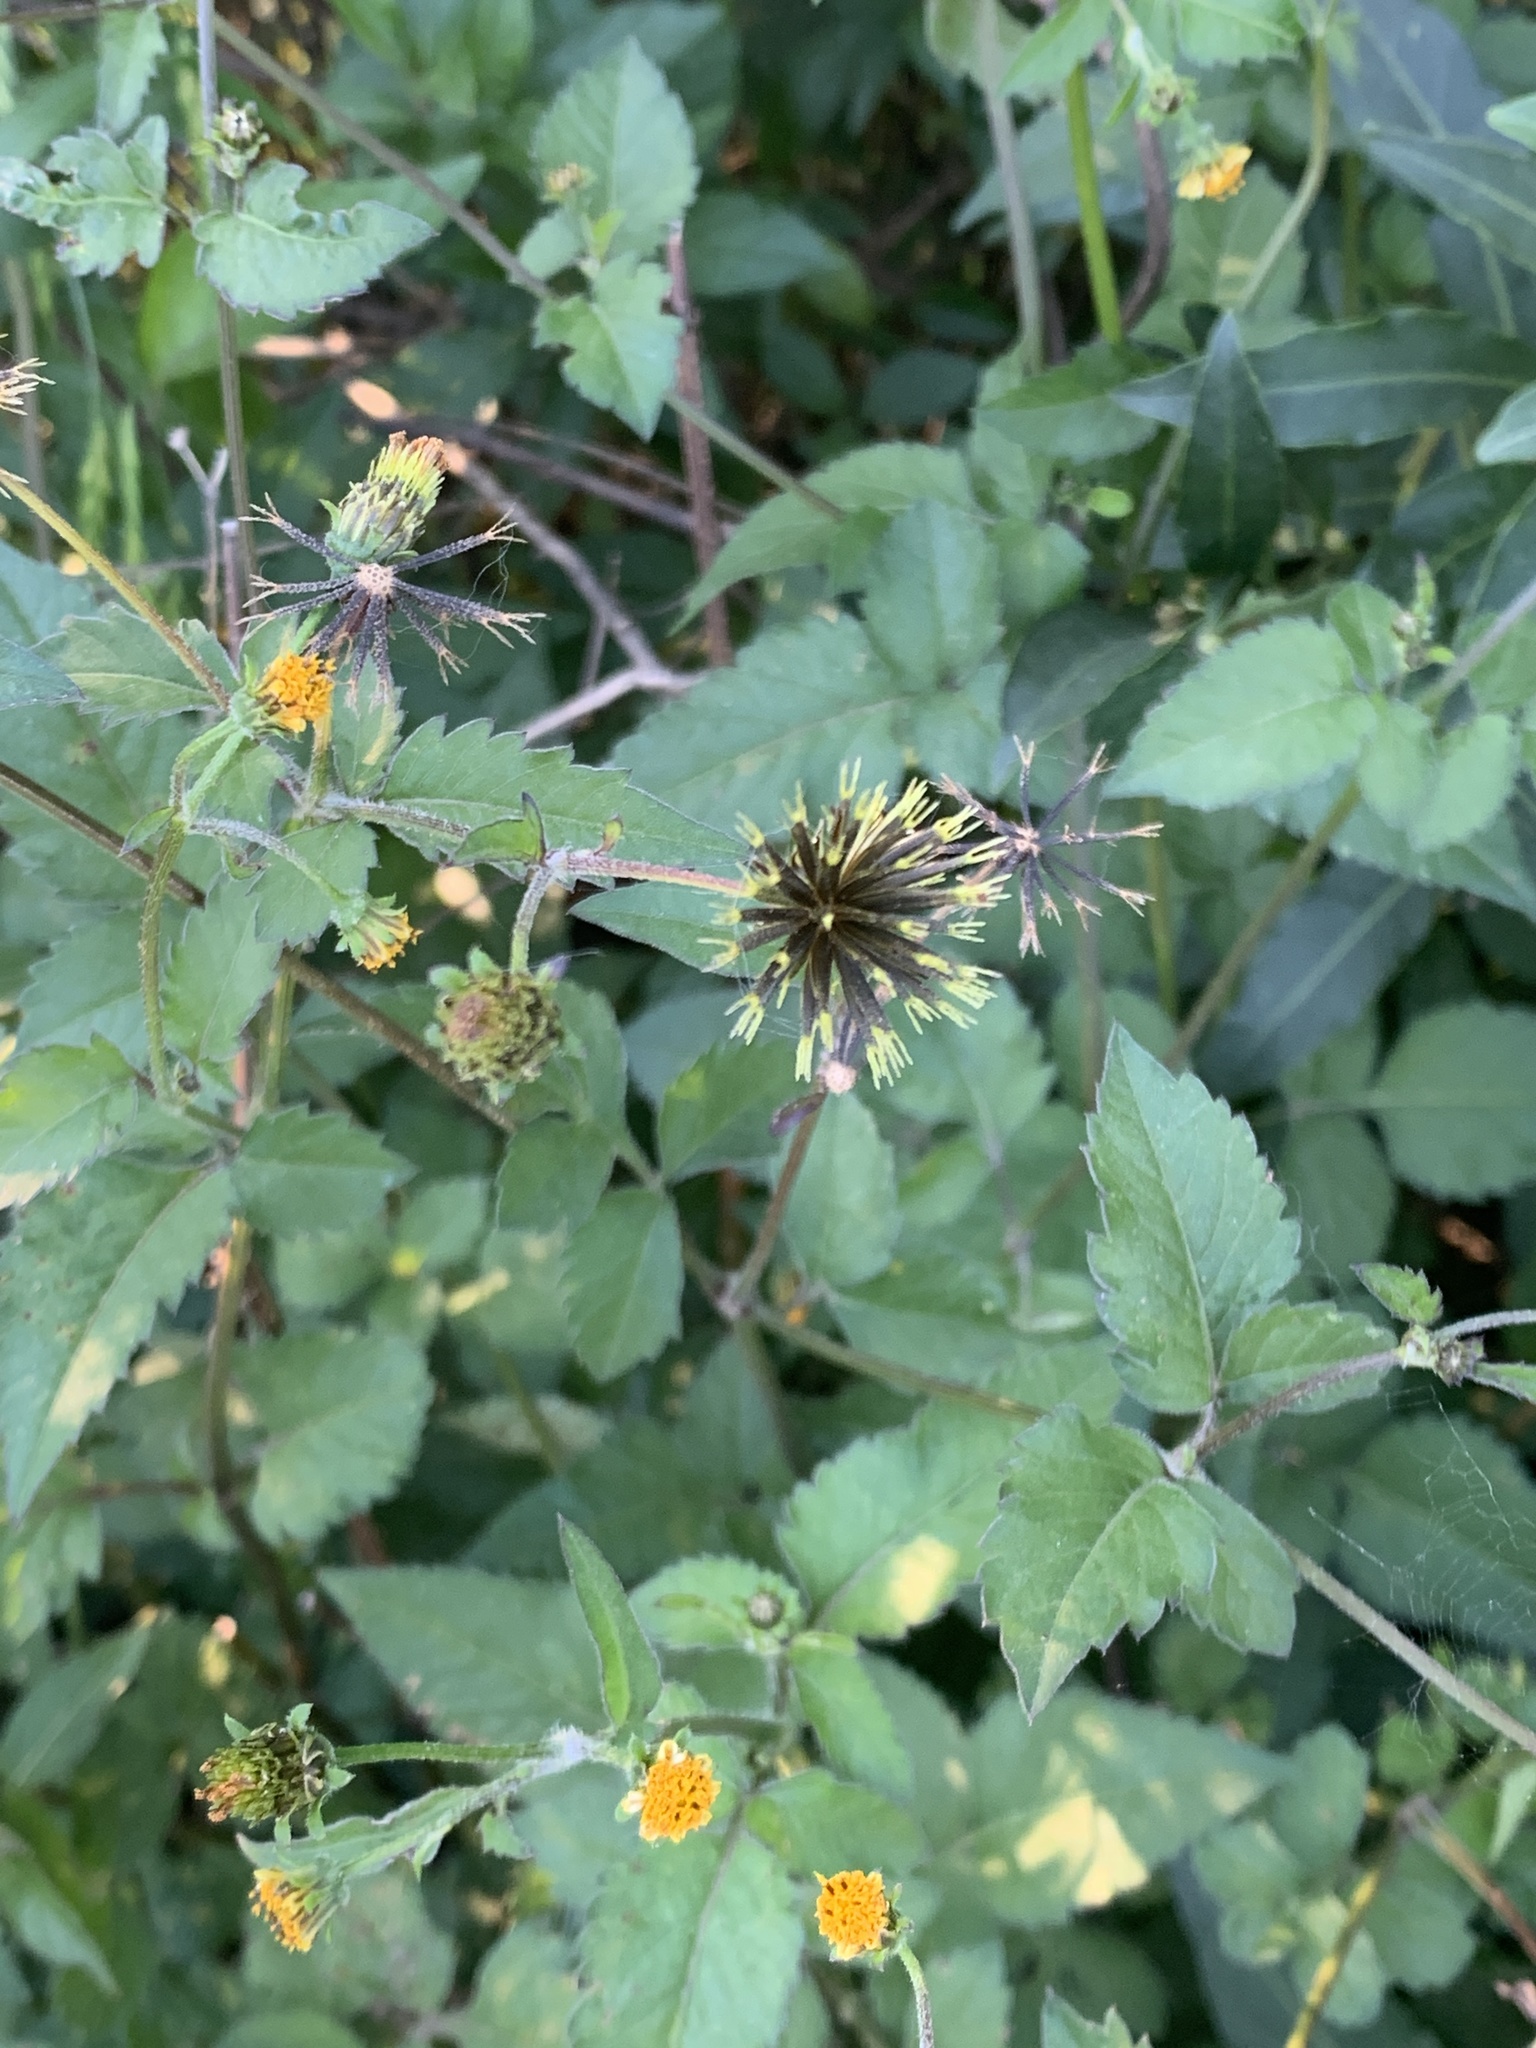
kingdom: Plantae
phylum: Tracheophyta
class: Magnoliopsida
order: Asterales
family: Asteraceae
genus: Bidens
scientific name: Bidens pilosa
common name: Black-jack
